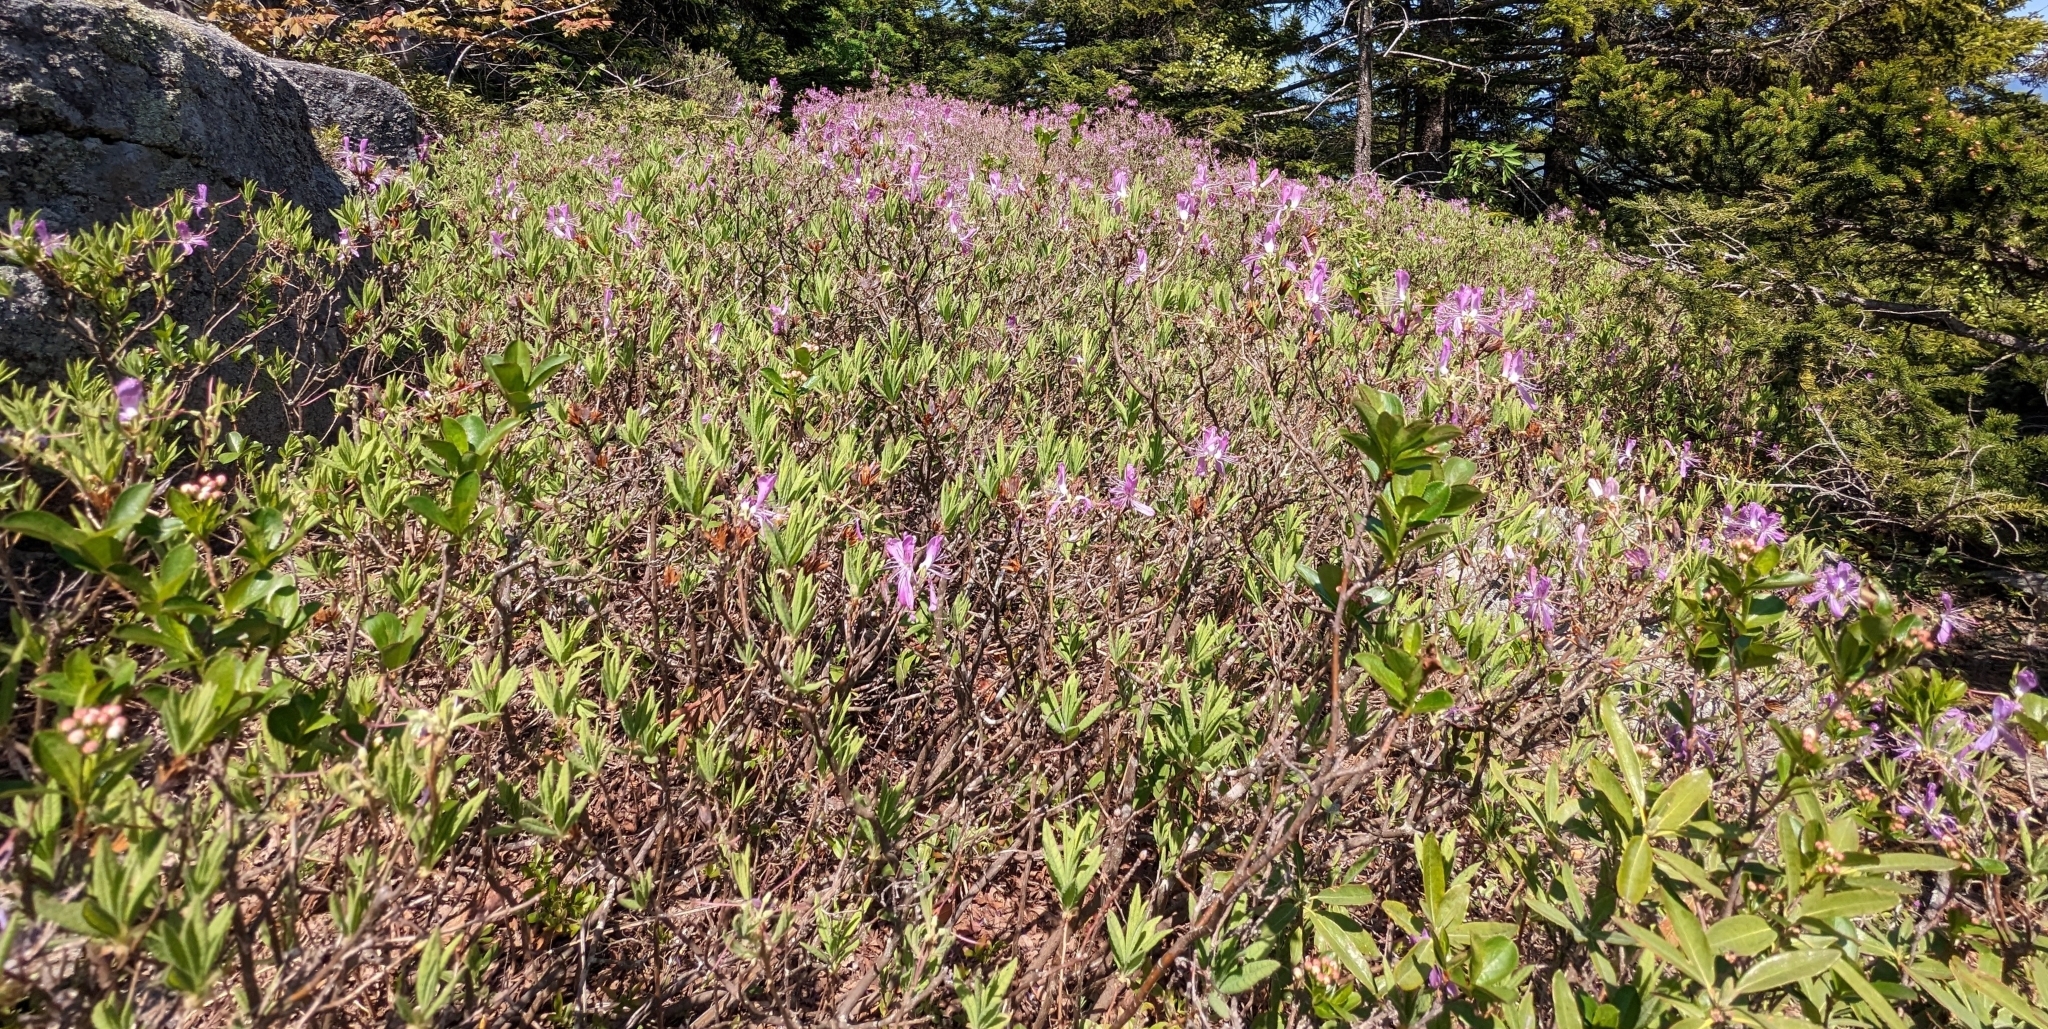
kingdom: Plantae
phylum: Tracheophyta
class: Magnoliopsida
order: Ericales
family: Ericaceae
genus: Rhododendron
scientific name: Rhododendron canadense
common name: Rhodora
